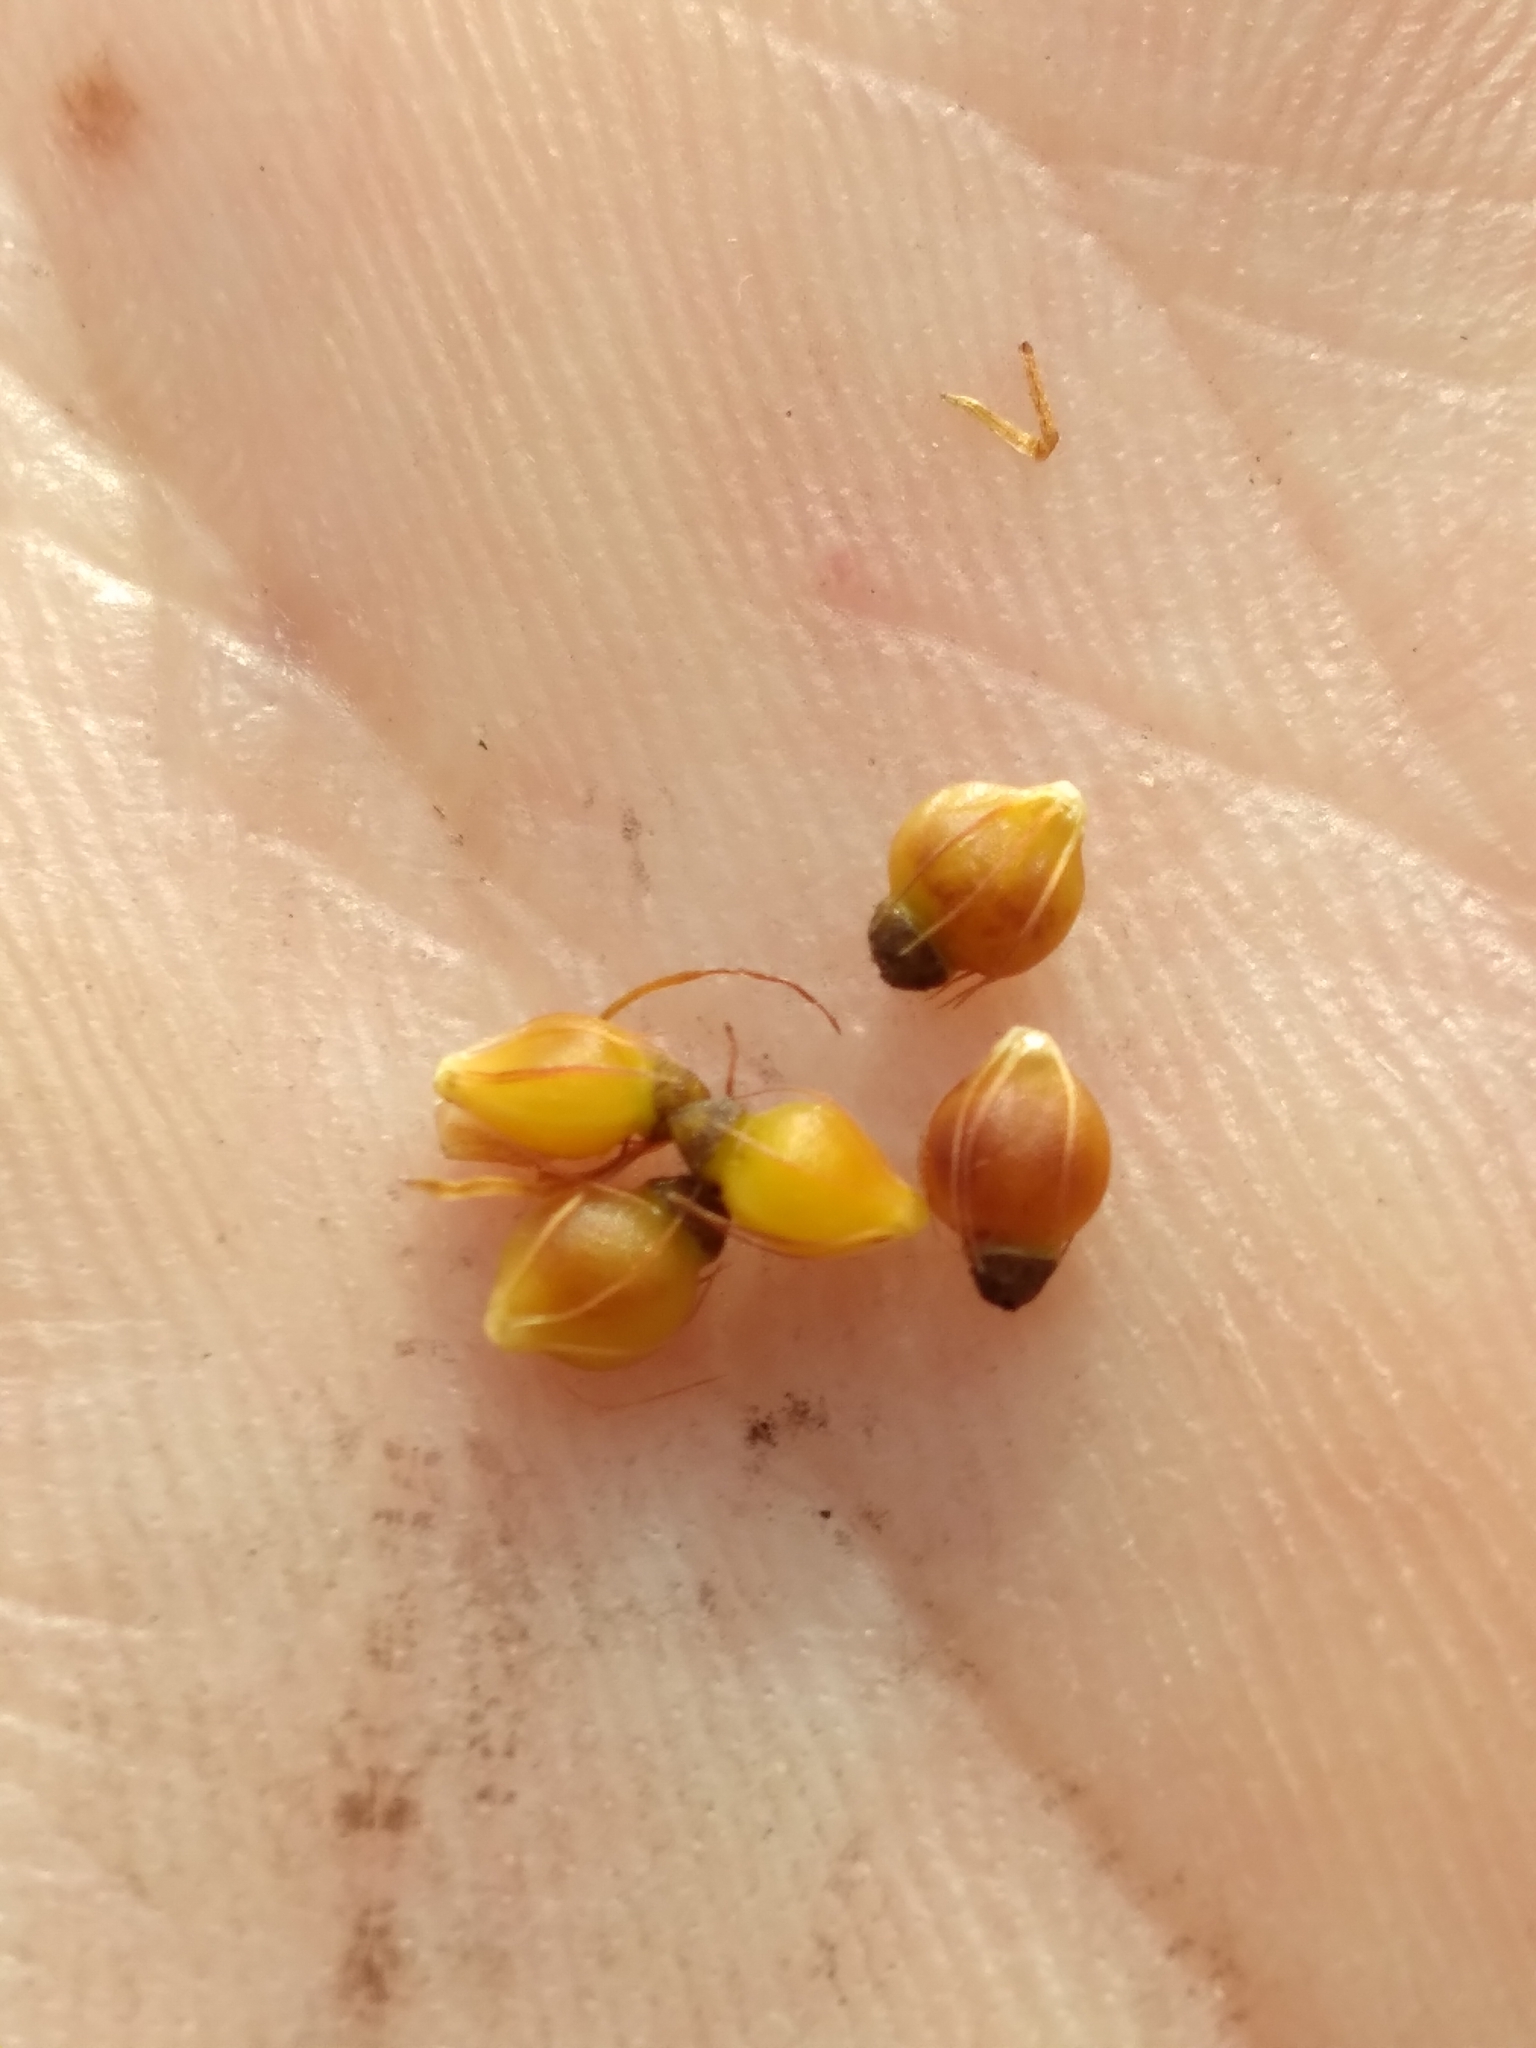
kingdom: Plantae
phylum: Tracheophyta
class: Liliopsida
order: Poales
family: Cyperaceae
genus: Rhynchospora
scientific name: Rhynchospora grayi
